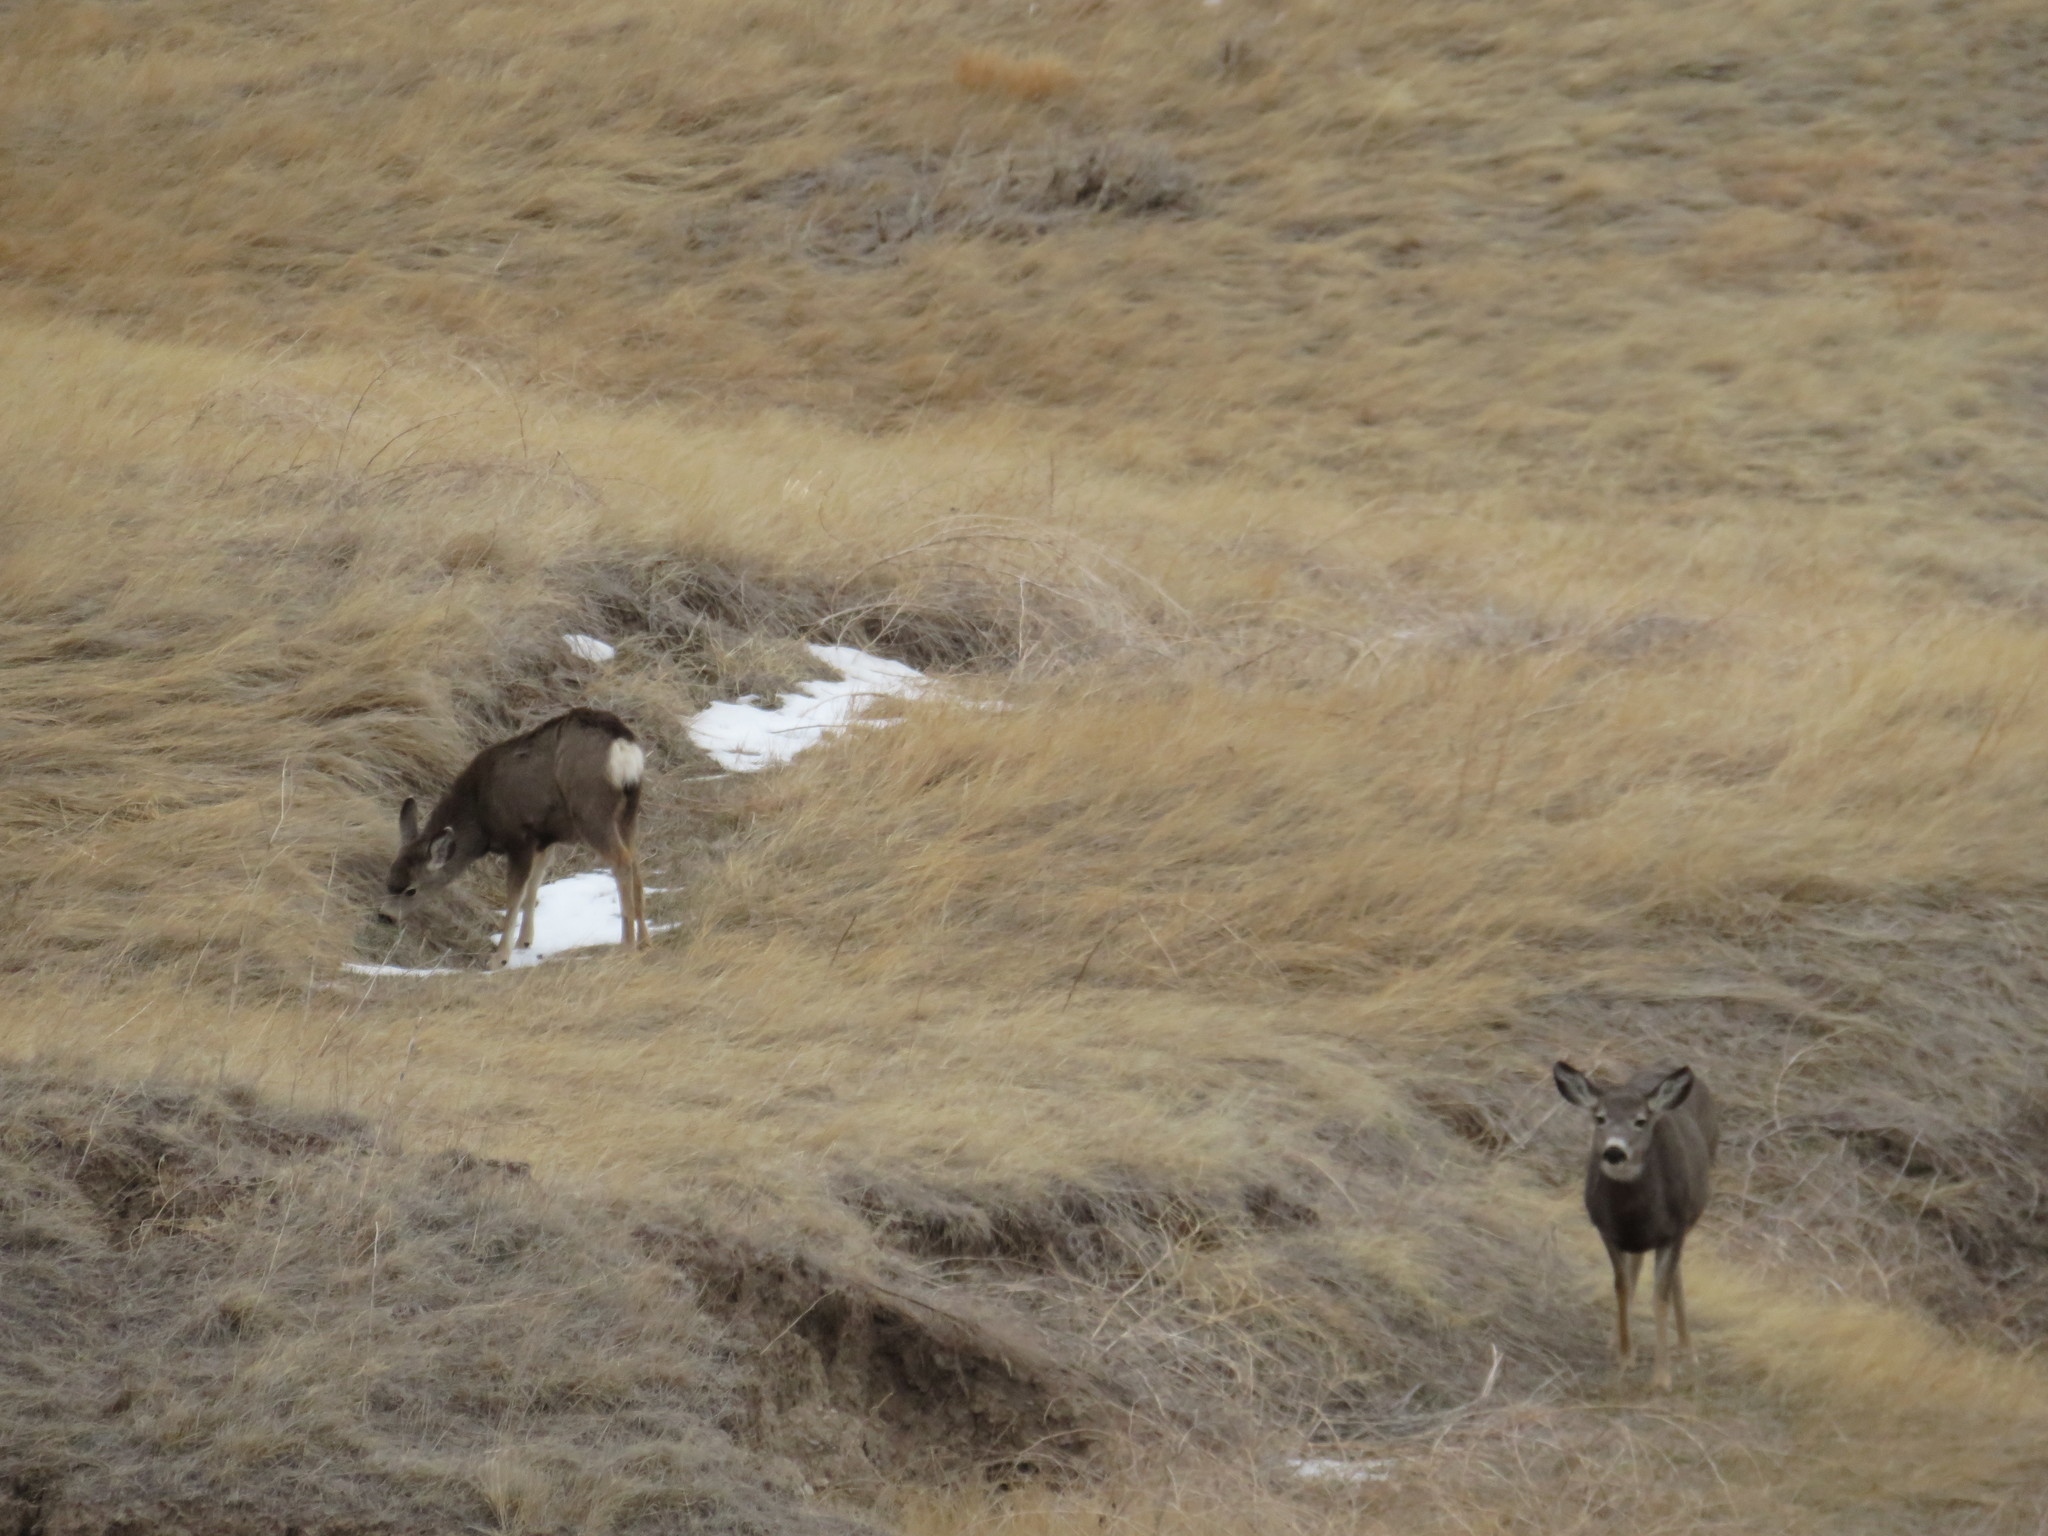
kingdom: Animalia
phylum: Chordata
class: Mammalia
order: Artiodactyla
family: Cervidae
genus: Odocoileus
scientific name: Odocoileus hemionus
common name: Mule deer
